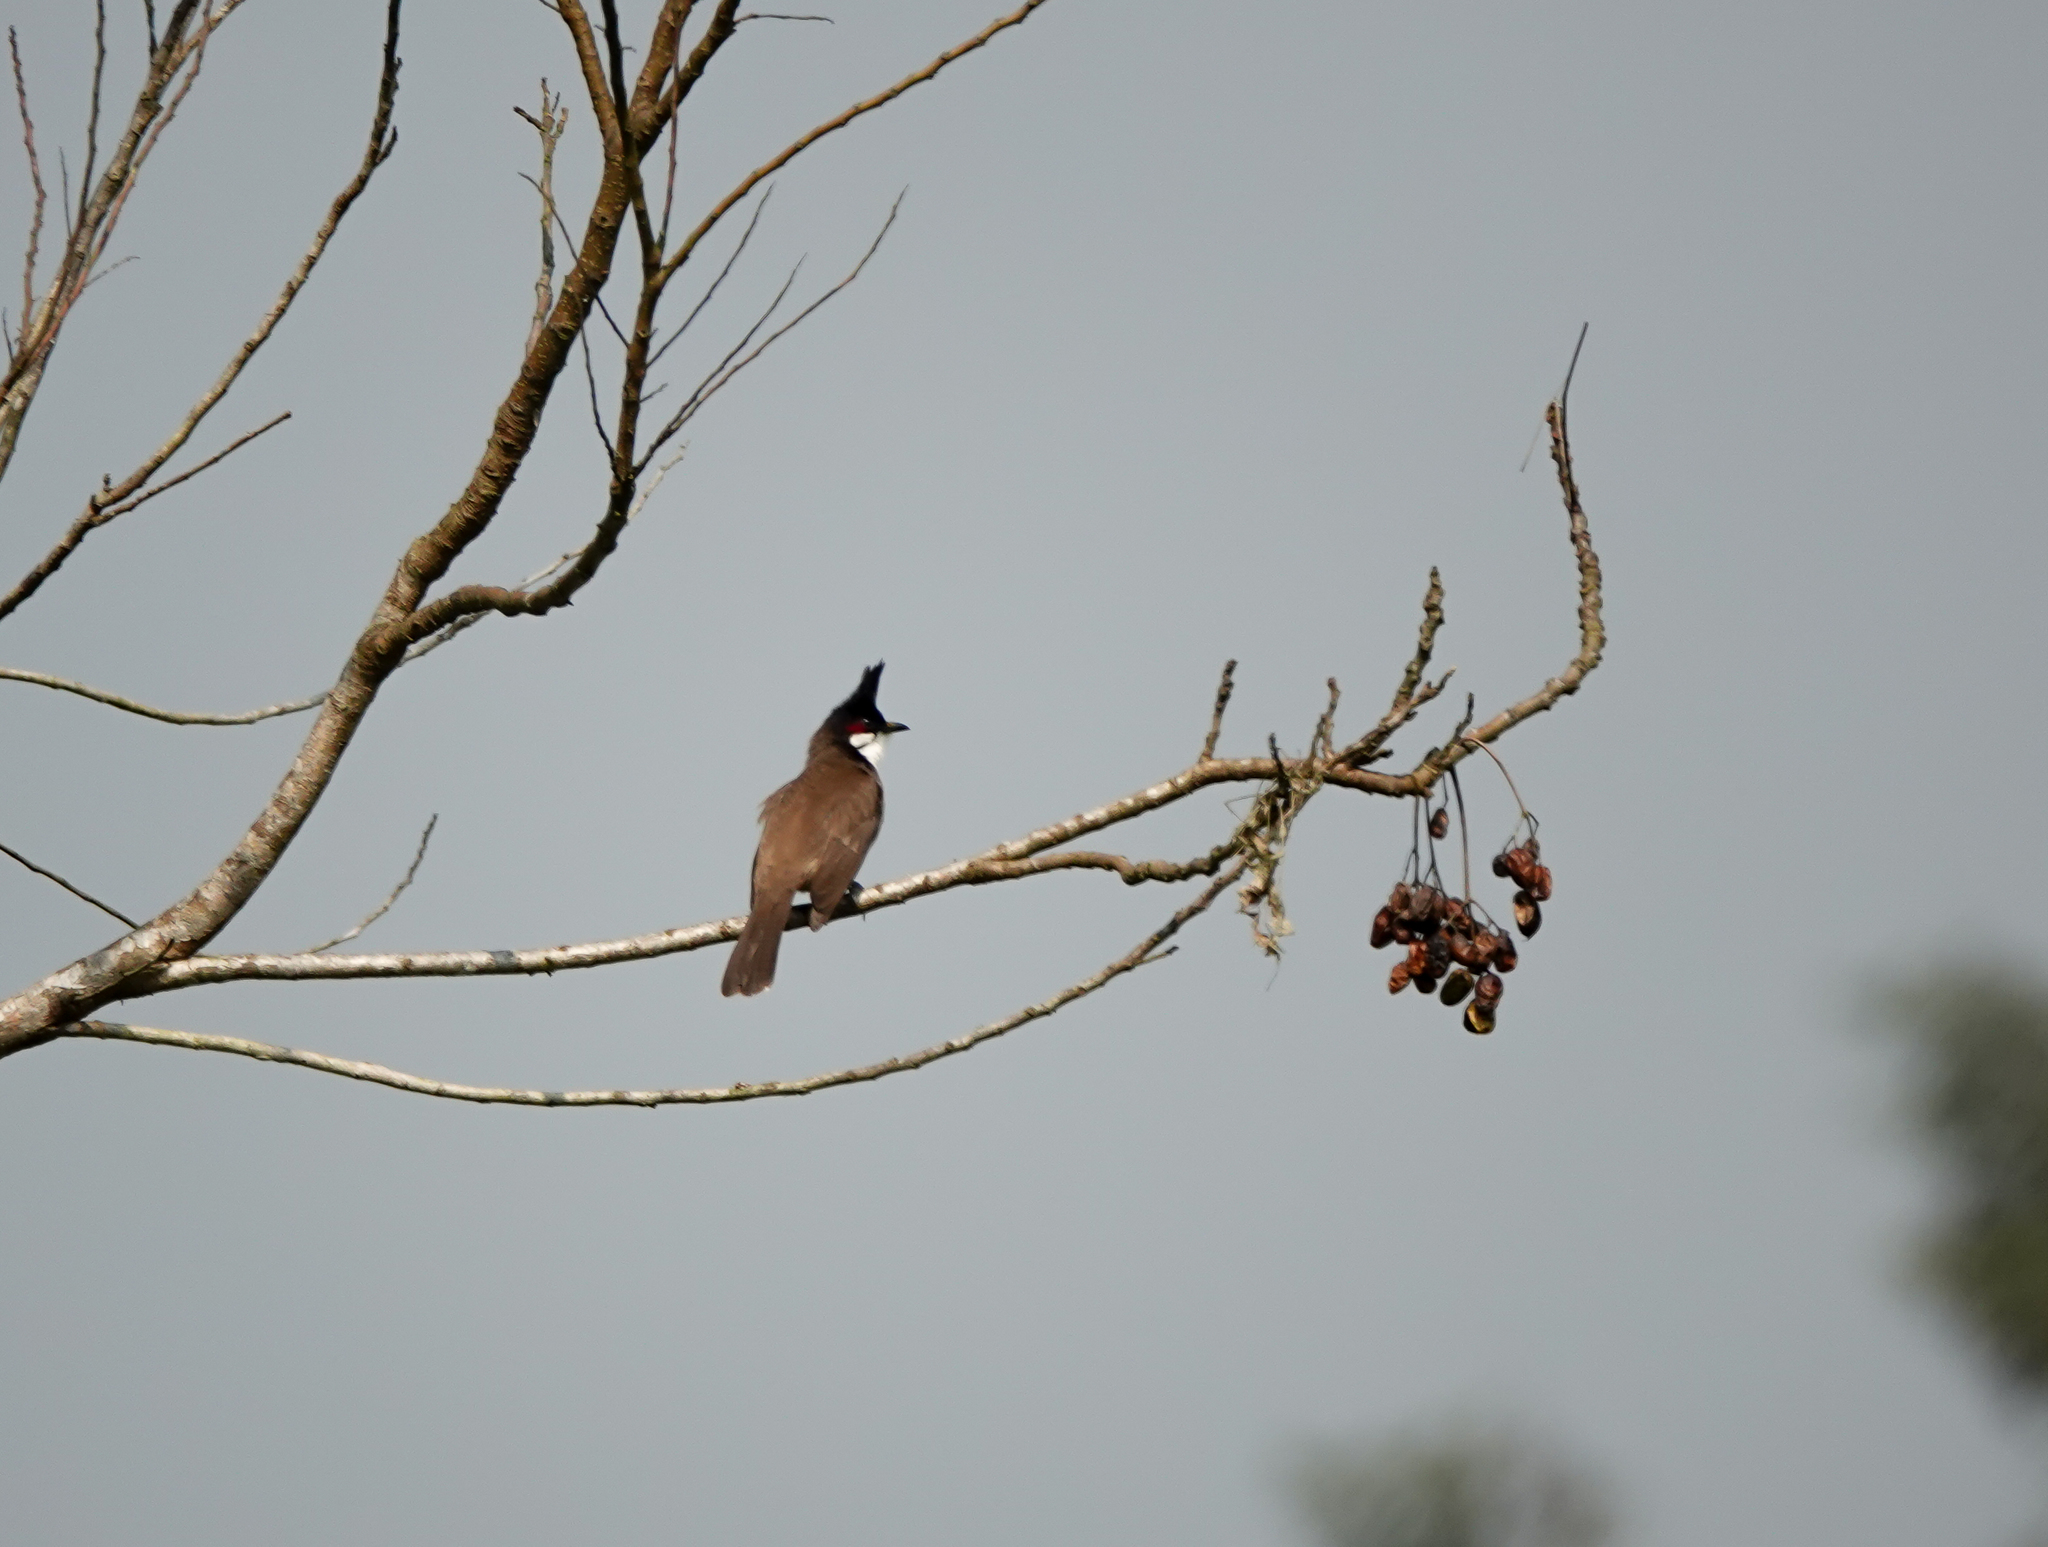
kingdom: Animalia
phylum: Chordata
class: Aves
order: Passeriformes
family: Pycnonotidae
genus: Pycnonotus
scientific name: Pycnonotus jocosus
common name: Red-whiskered bulbul
